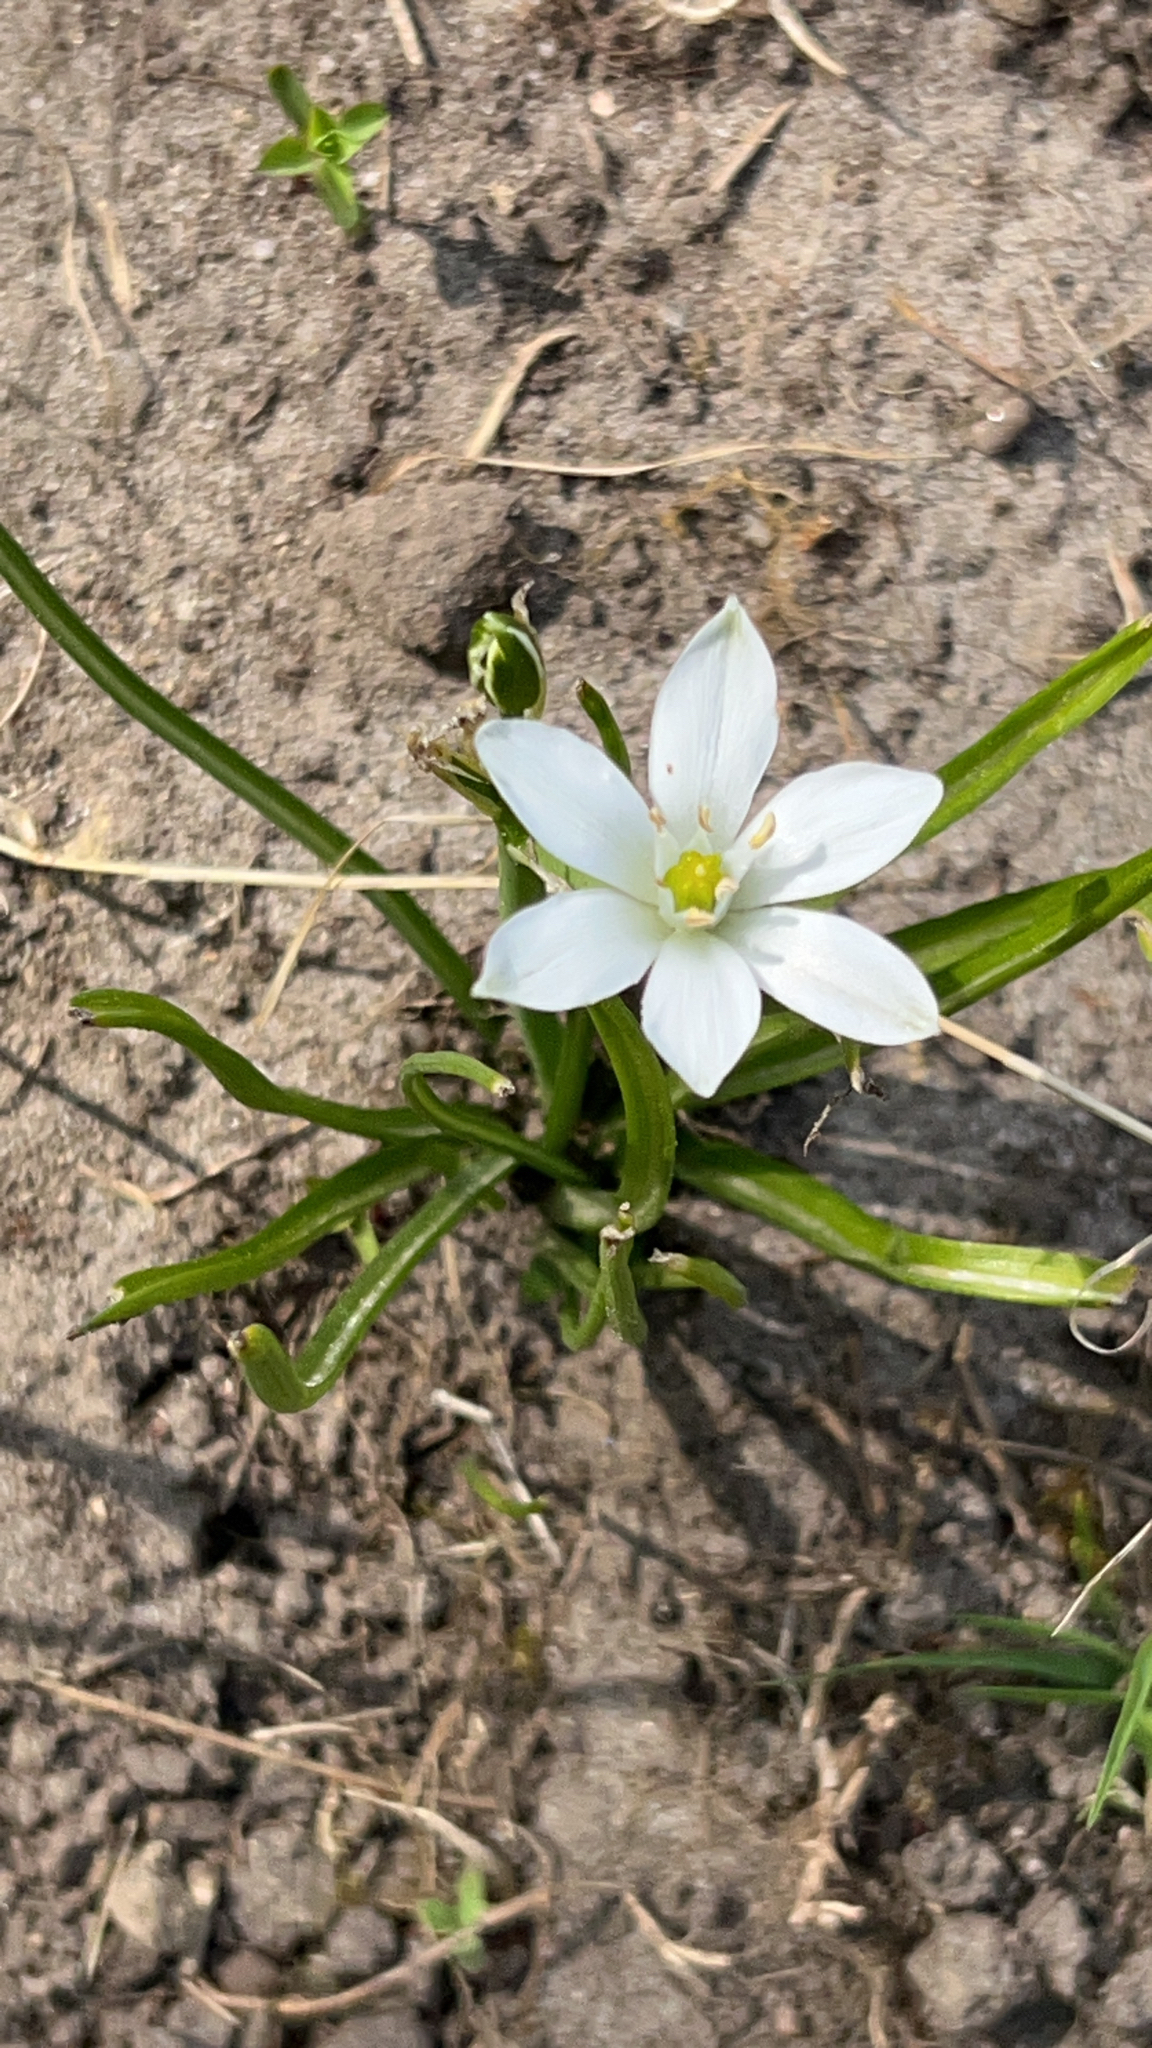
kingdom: Plantae
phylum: Tracheophyta
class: Liliopsida
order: Asparagales
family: Asparagaceae
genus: Ornithogalum
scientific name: Ornithogalum umbellatum
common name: Garden star-of-bethlehem
